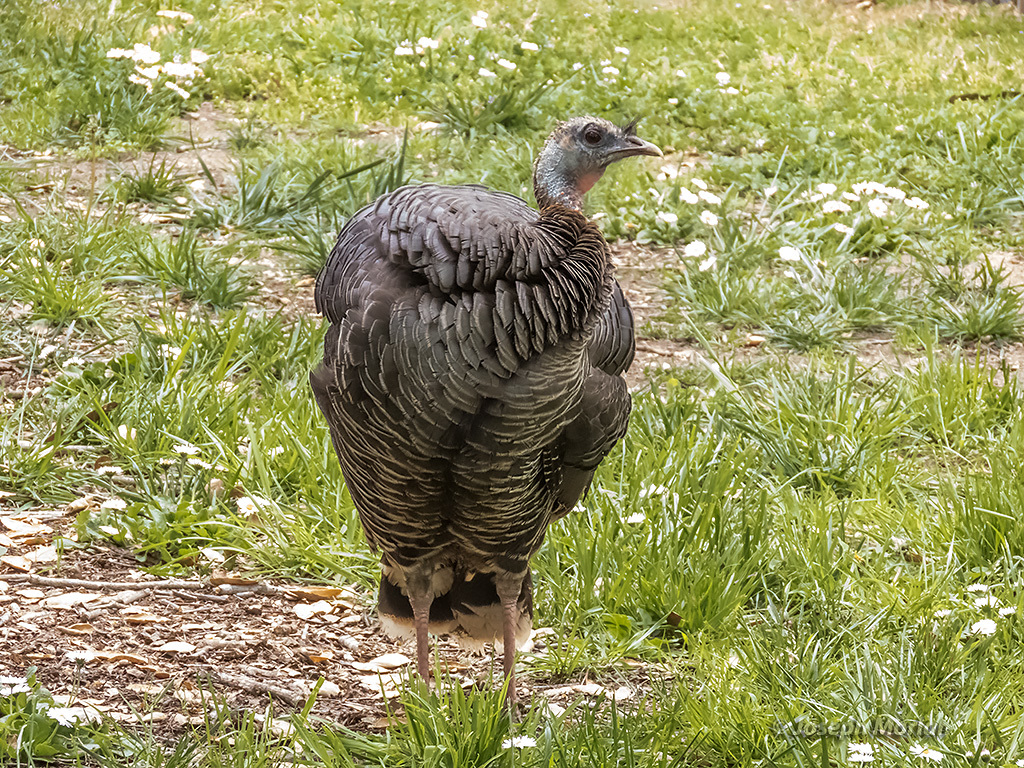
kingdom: Animalia
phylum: Chordata
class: Aves
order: Galliformes
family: Phasianidae
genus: Meleagris
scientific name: Meleagris gallopavo
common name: Wild turkey
